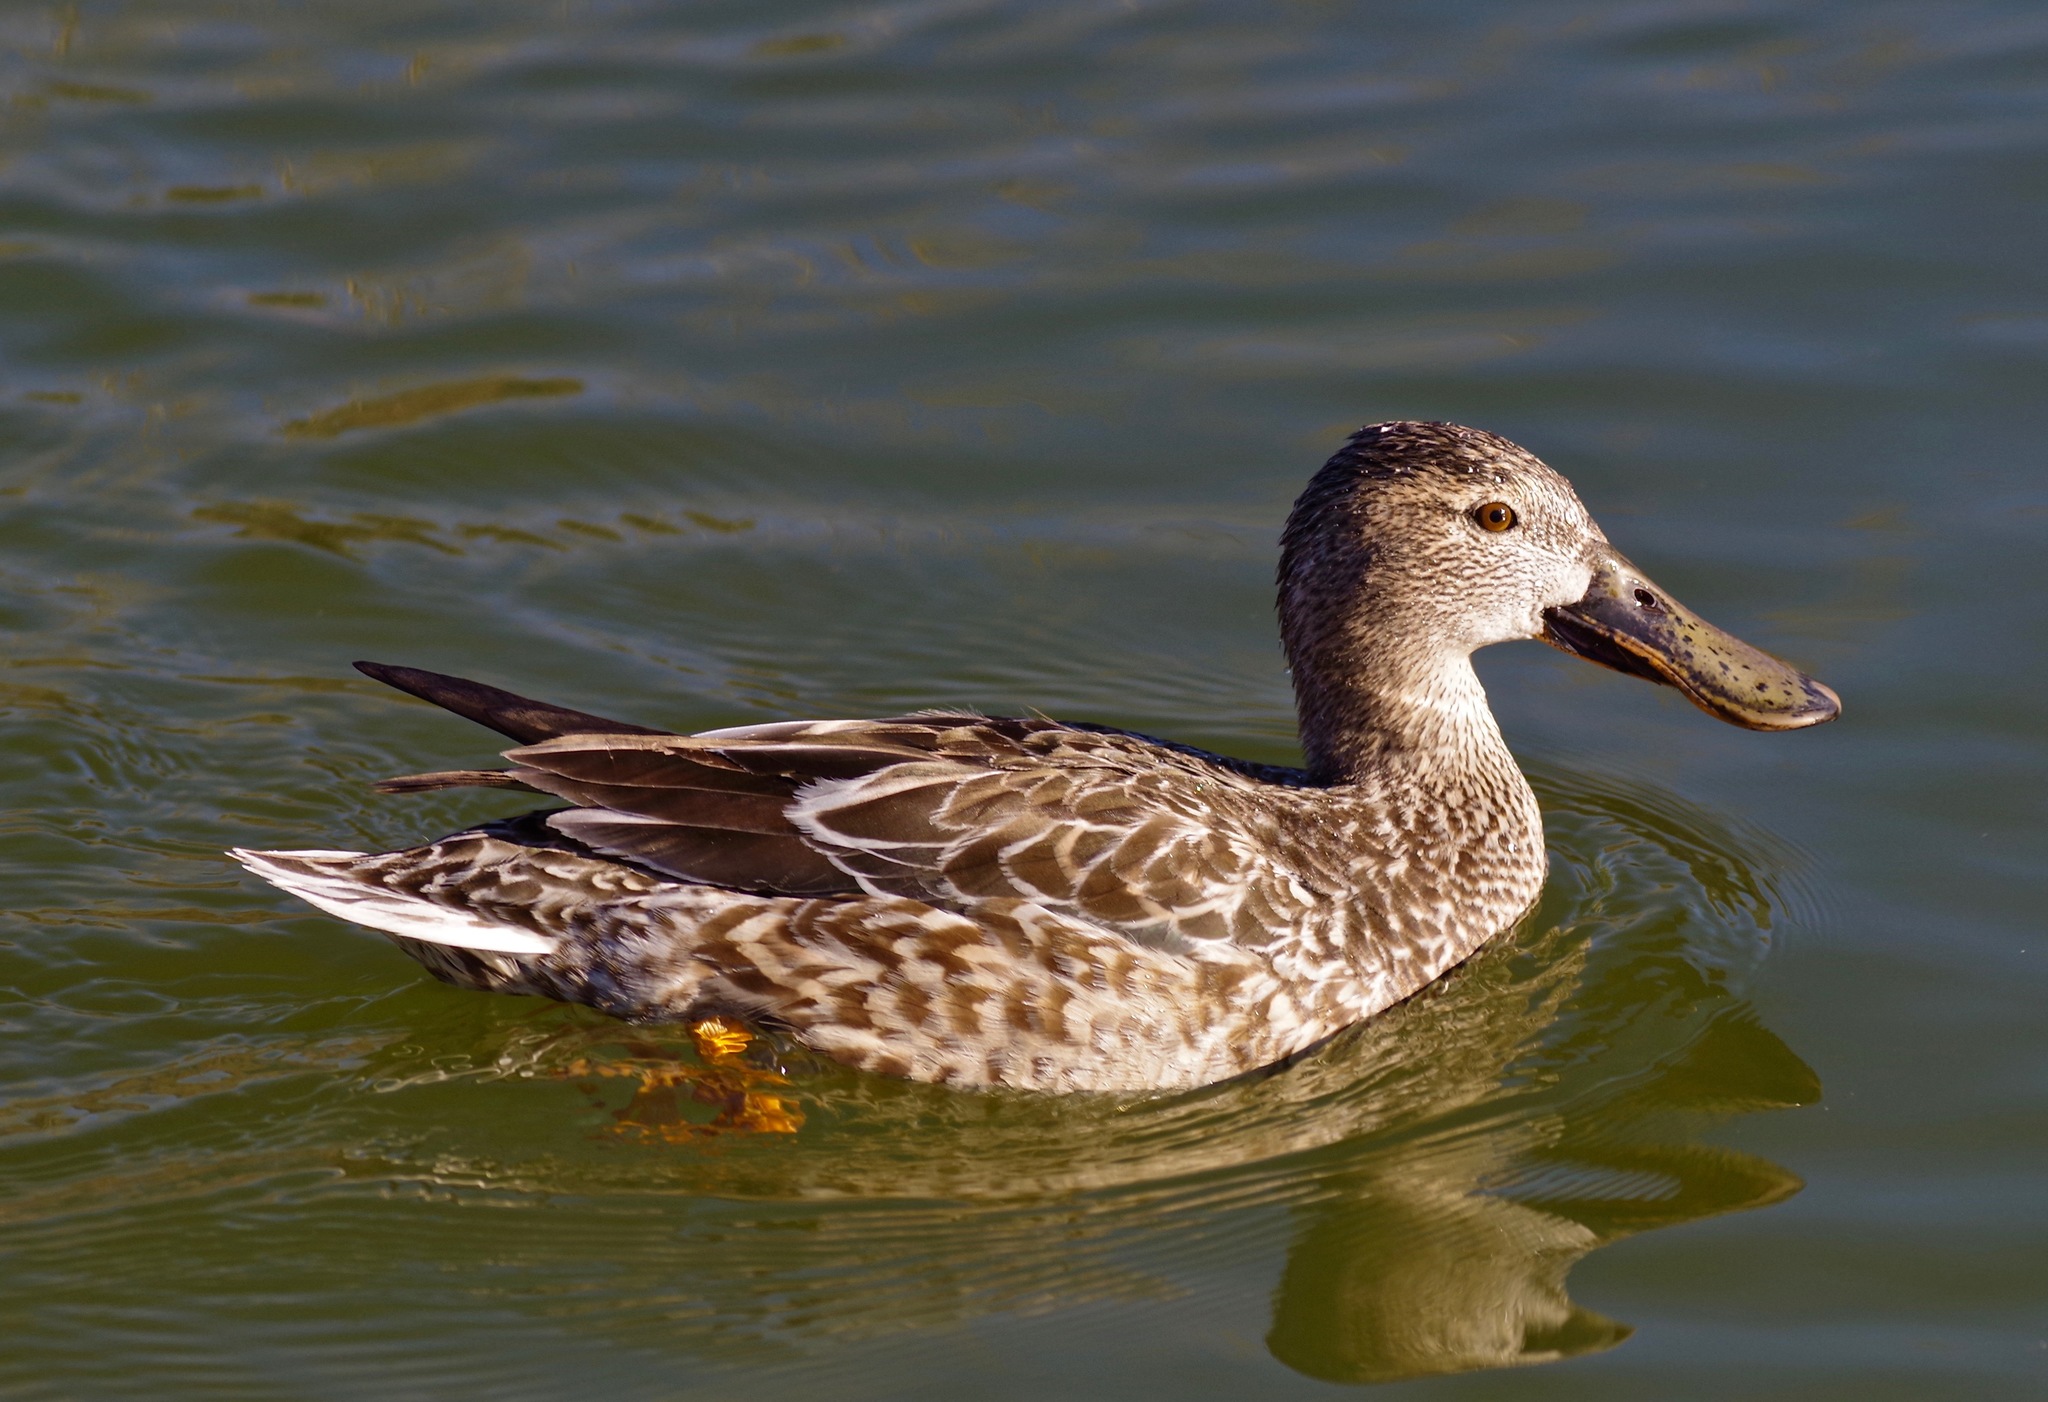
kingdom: Animalia
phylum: Chordata
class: Aves
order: Anseriformes
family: Anatidae
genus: Spatula
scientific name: Spatula clypeata
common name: Northern shoveler
